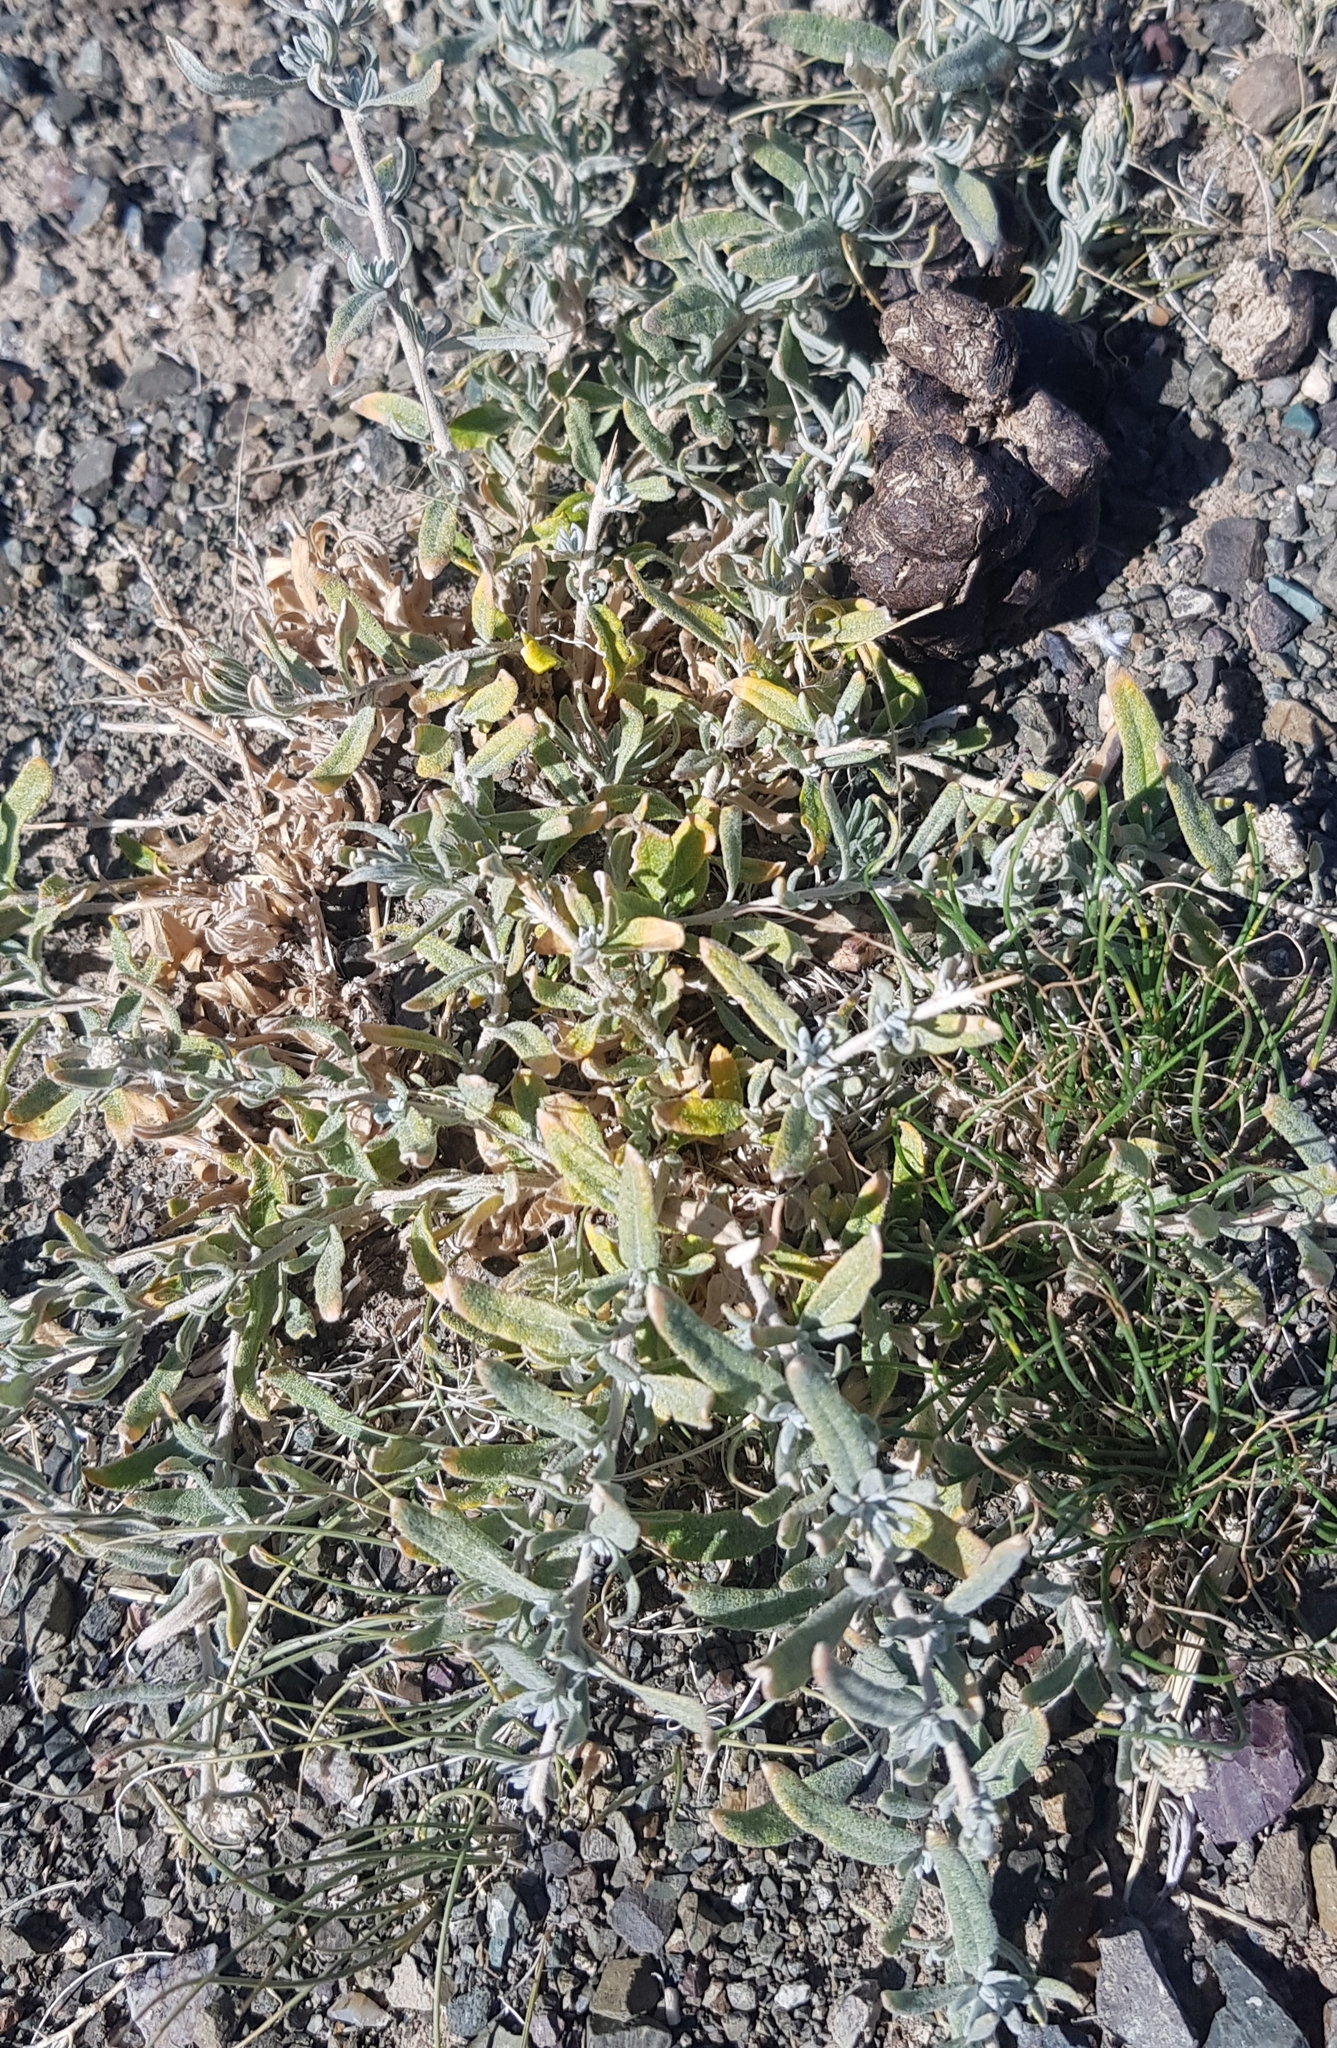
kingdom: Plantae
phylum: Tracheophyta
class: Magnoliopsida
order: Caryophyllales
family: Amaranthaceae
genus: Krascheninnikovia
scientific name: Krascheninnikovia ceratoides
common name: Pamirian winterfat
